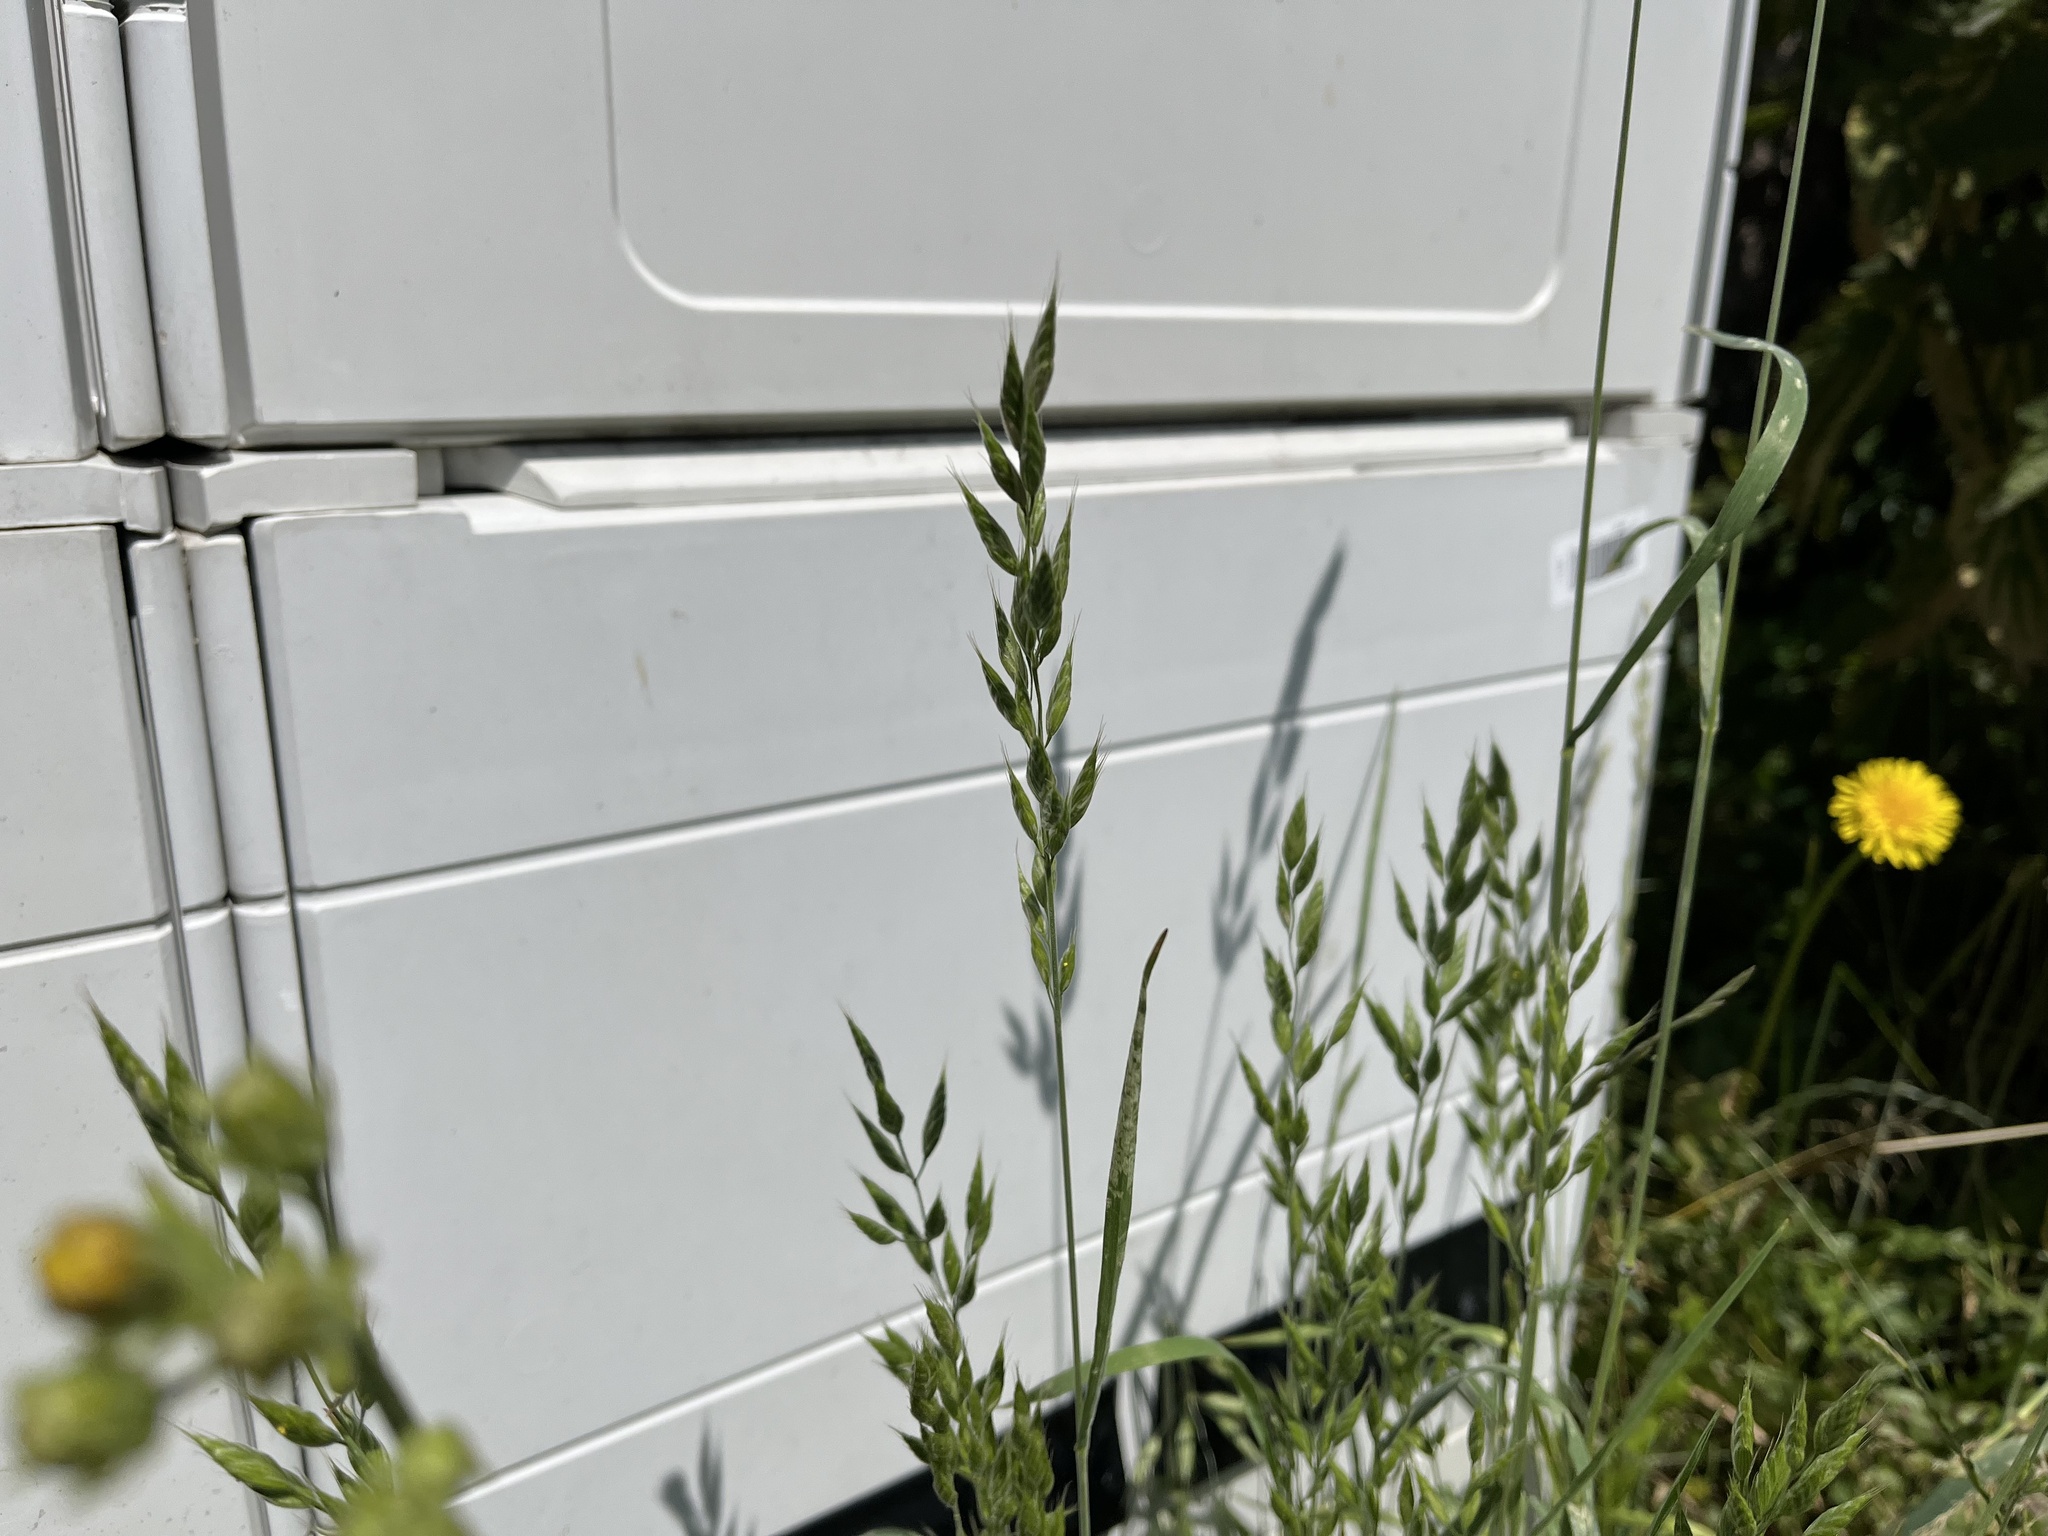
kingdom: Plantae
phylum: Tracheophyta
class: Liliopsida
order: Poales
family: Poaceae
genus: Bromus
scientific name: Bromus hordeaceus
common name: Soft brome
